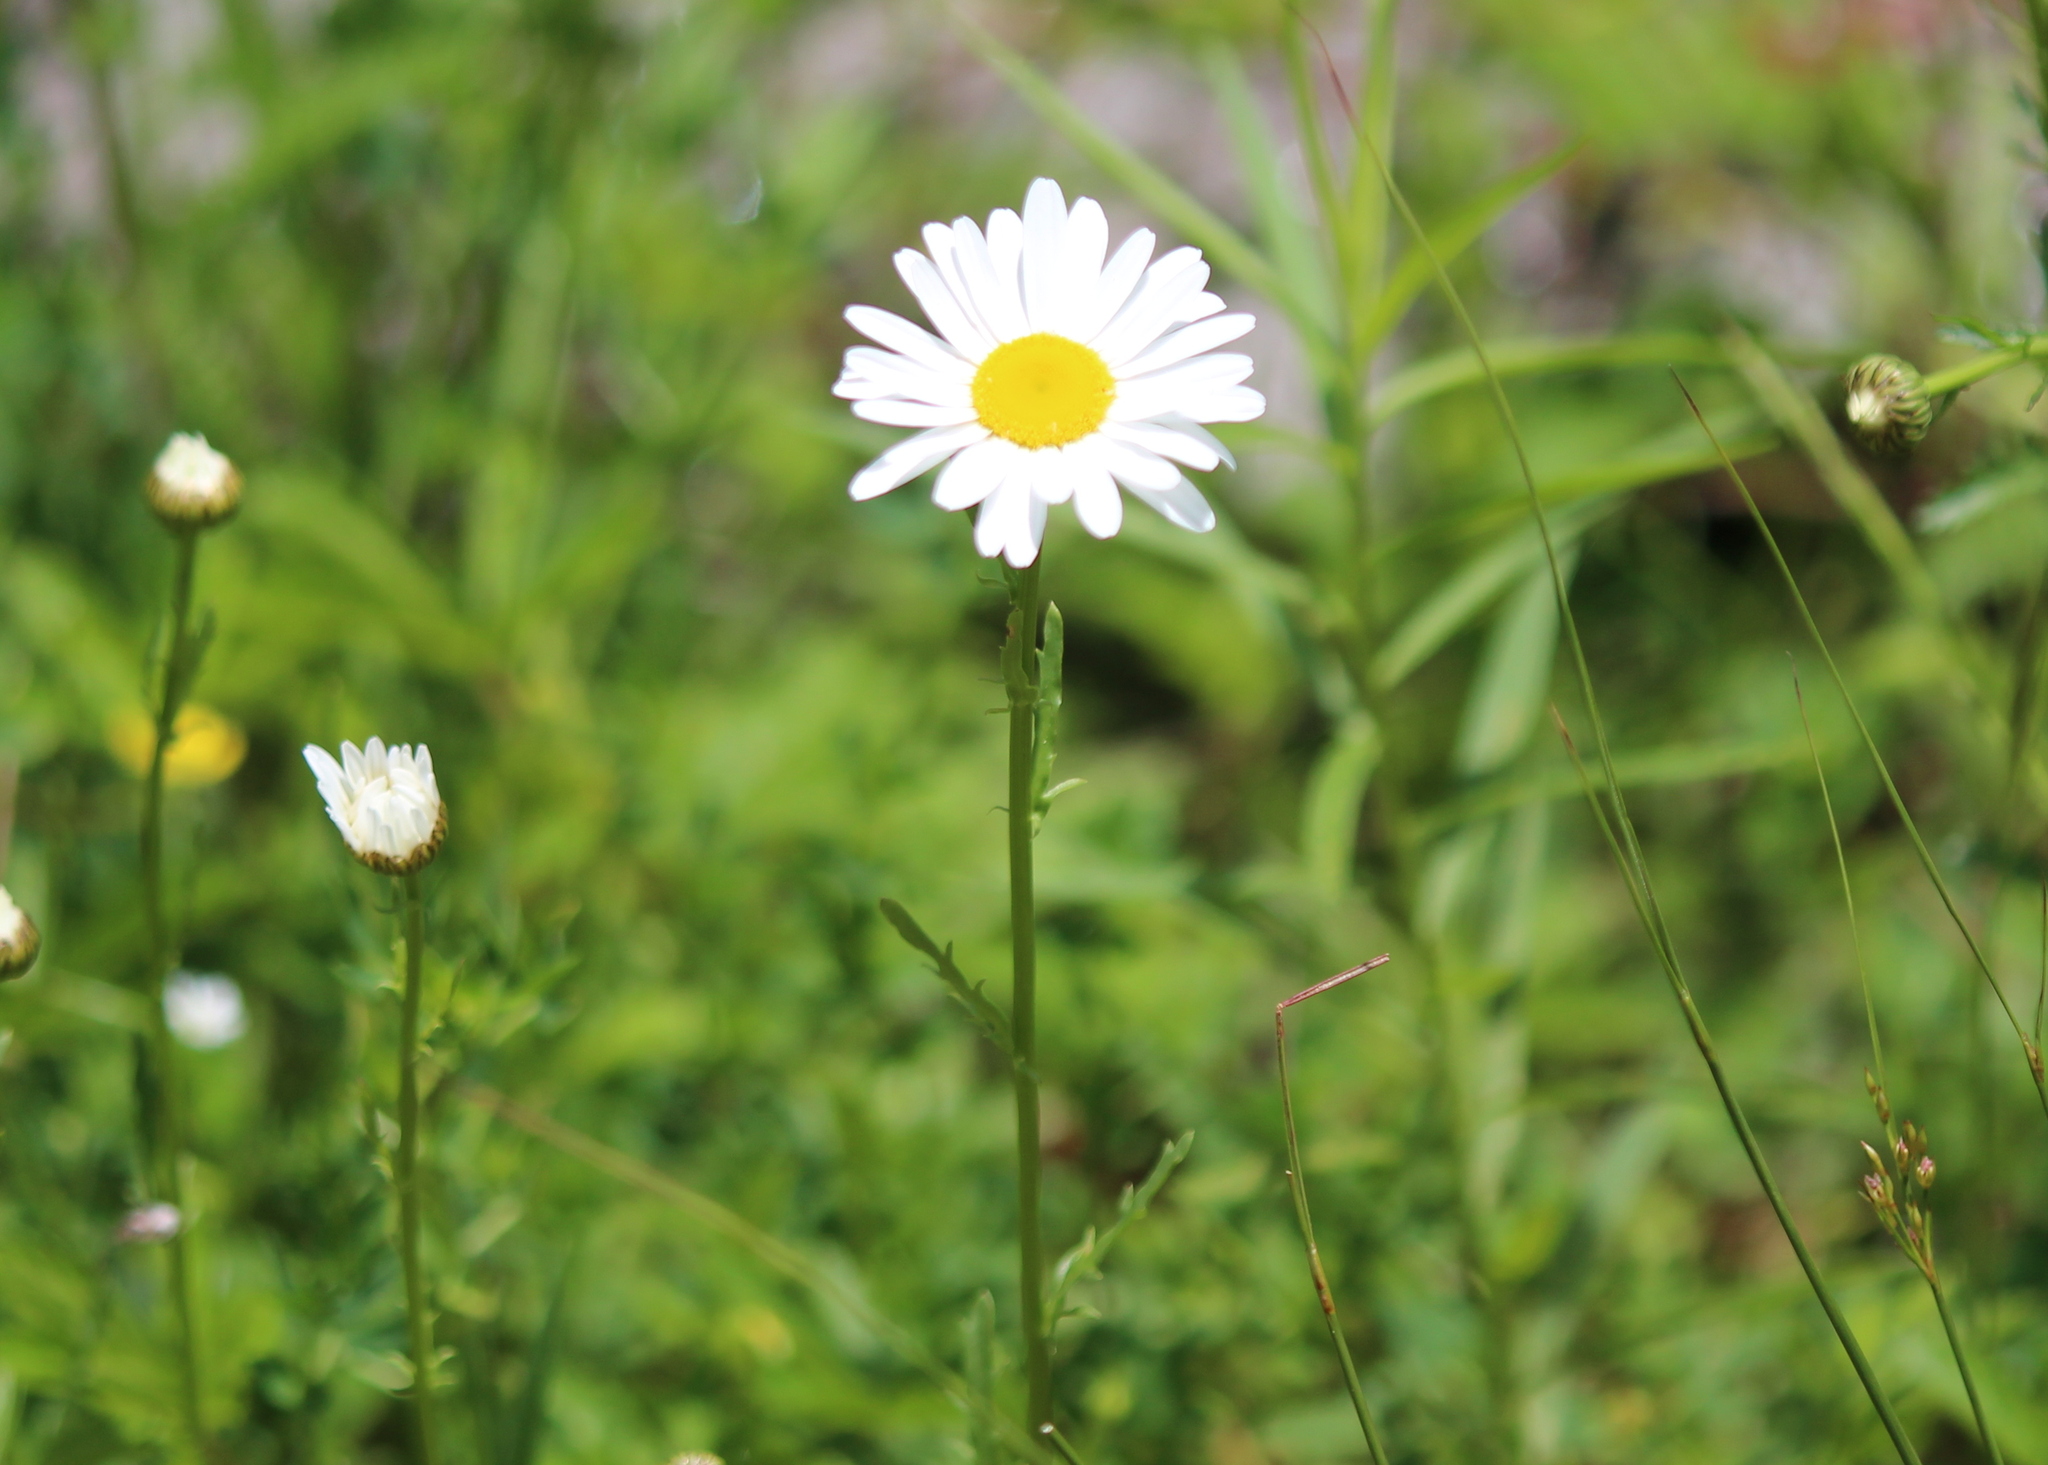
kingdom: Plantae
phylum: Tracheophyta
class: Magnoliopsida
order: Asterales
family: Asteraceae
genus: Leucanthemum
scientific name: Leucanthemum vulgare
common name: Oxeye daisy
